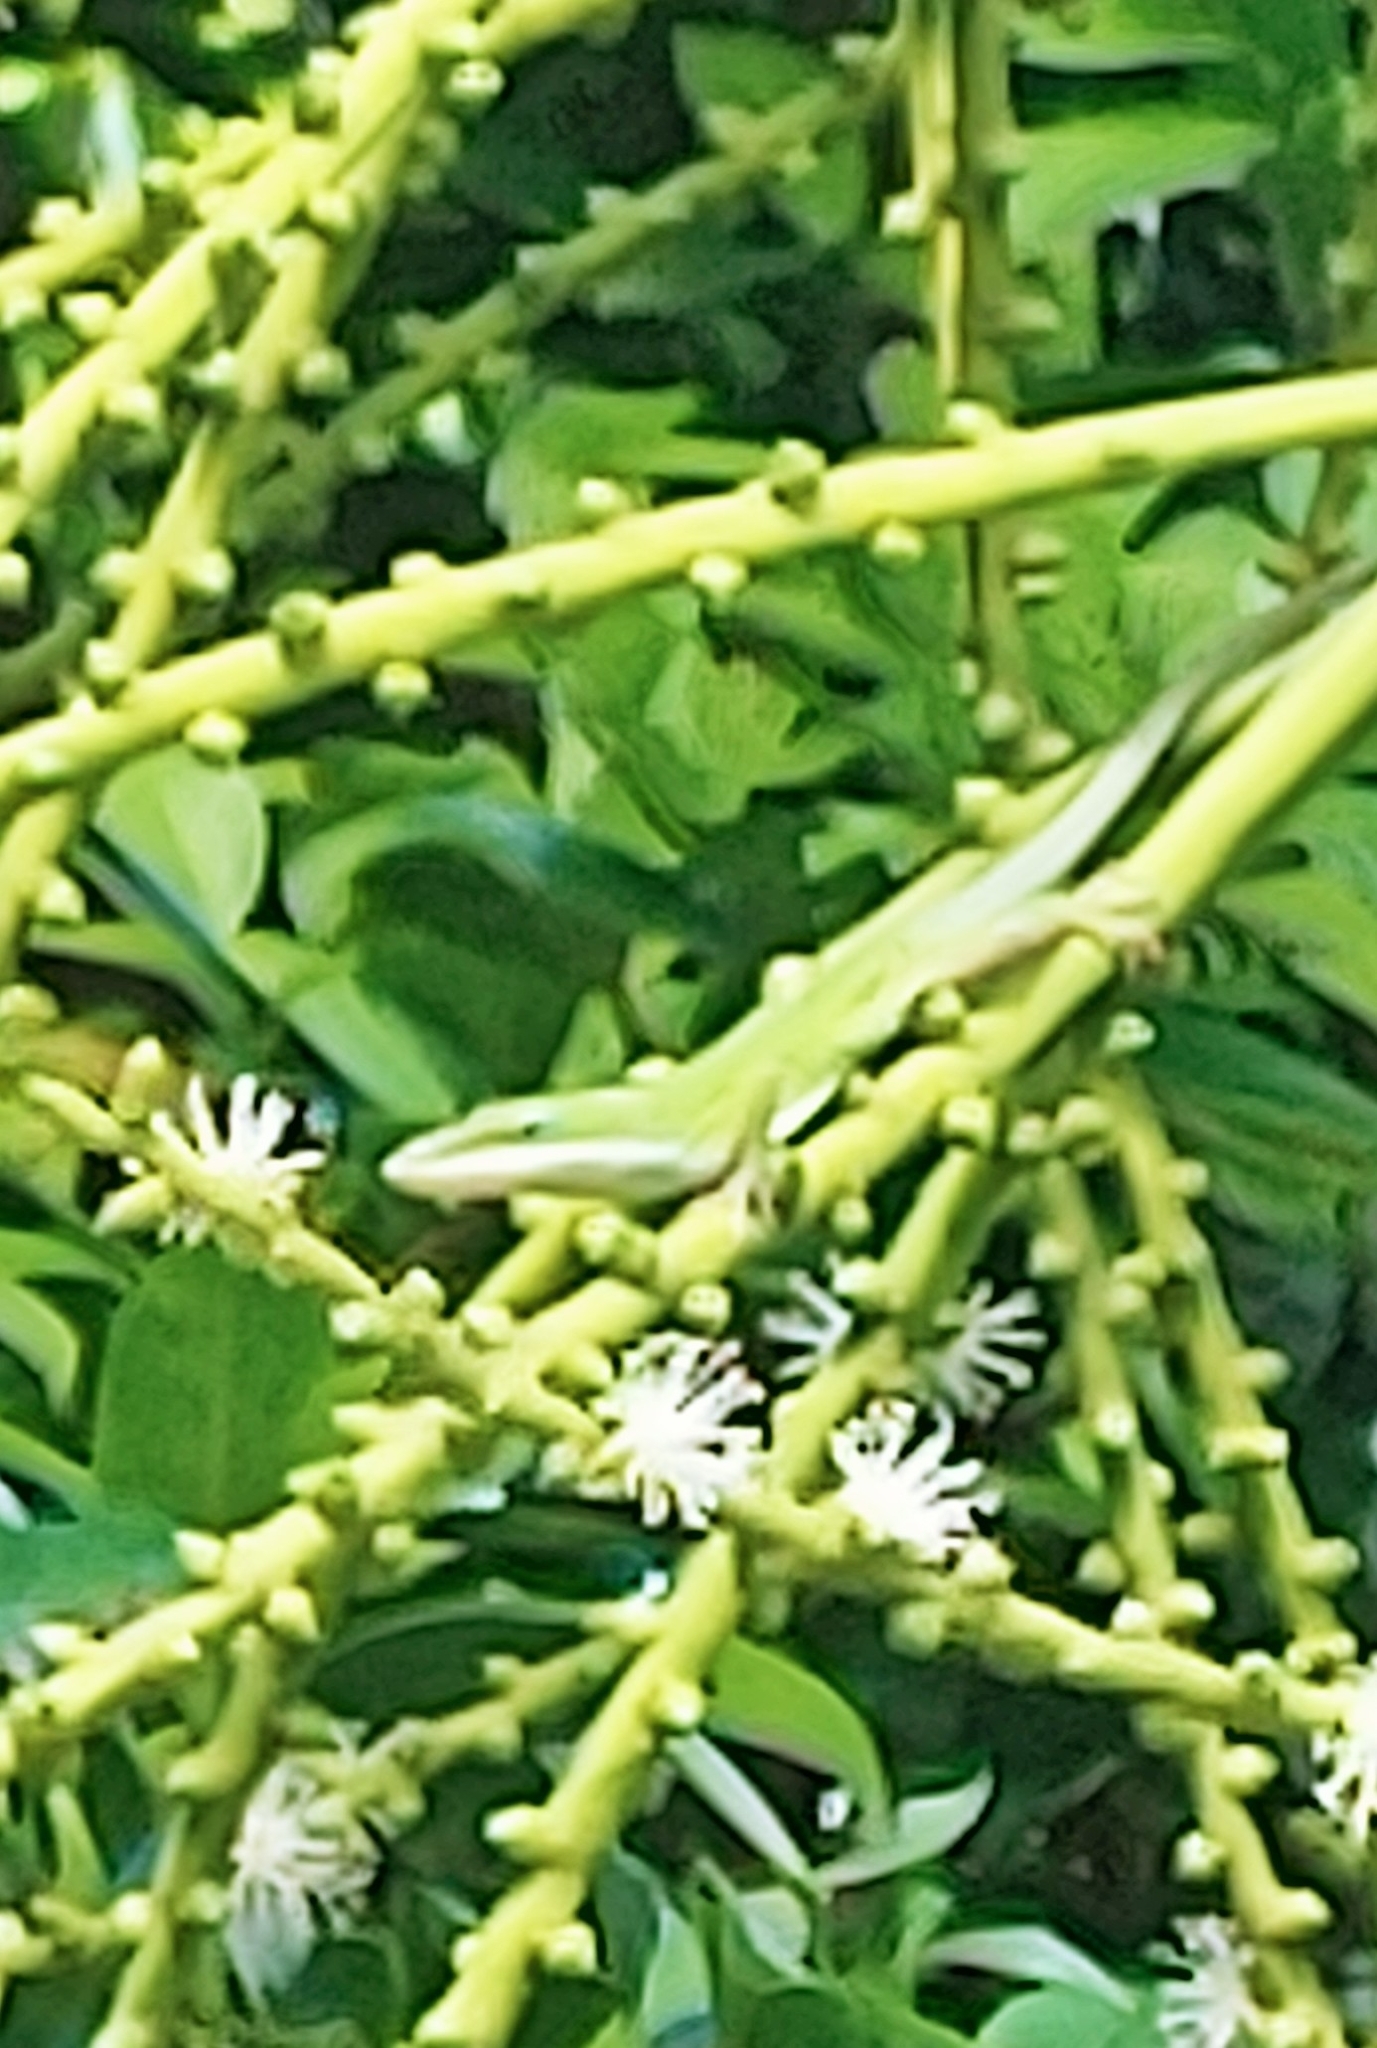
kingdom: Animalia
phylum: Chordata
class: Squamata
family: Dactyloidae
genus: Anolis
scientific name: Anolis carolinensis
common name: Green anole
